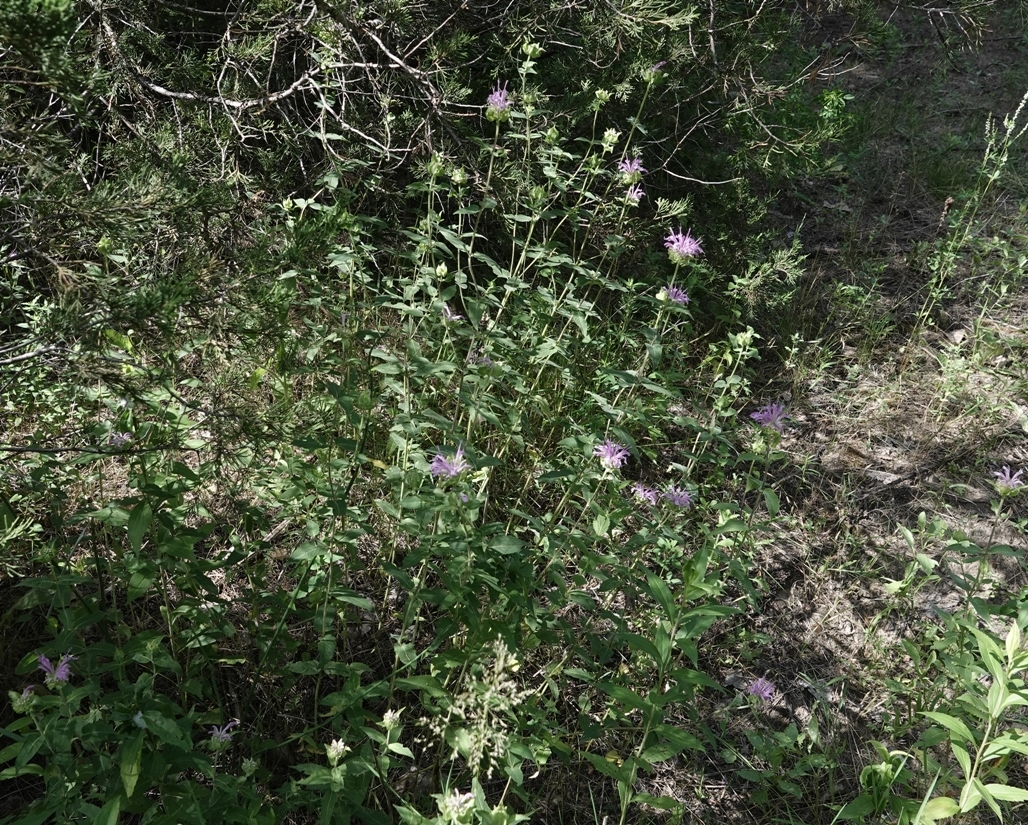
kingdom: Plantae
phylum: Tracheophyta
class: Magnoliopsida
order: Lamiales
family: Lamiaceae
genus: Monarda
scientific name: Monarda fistulosa
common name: Purple beebalm
